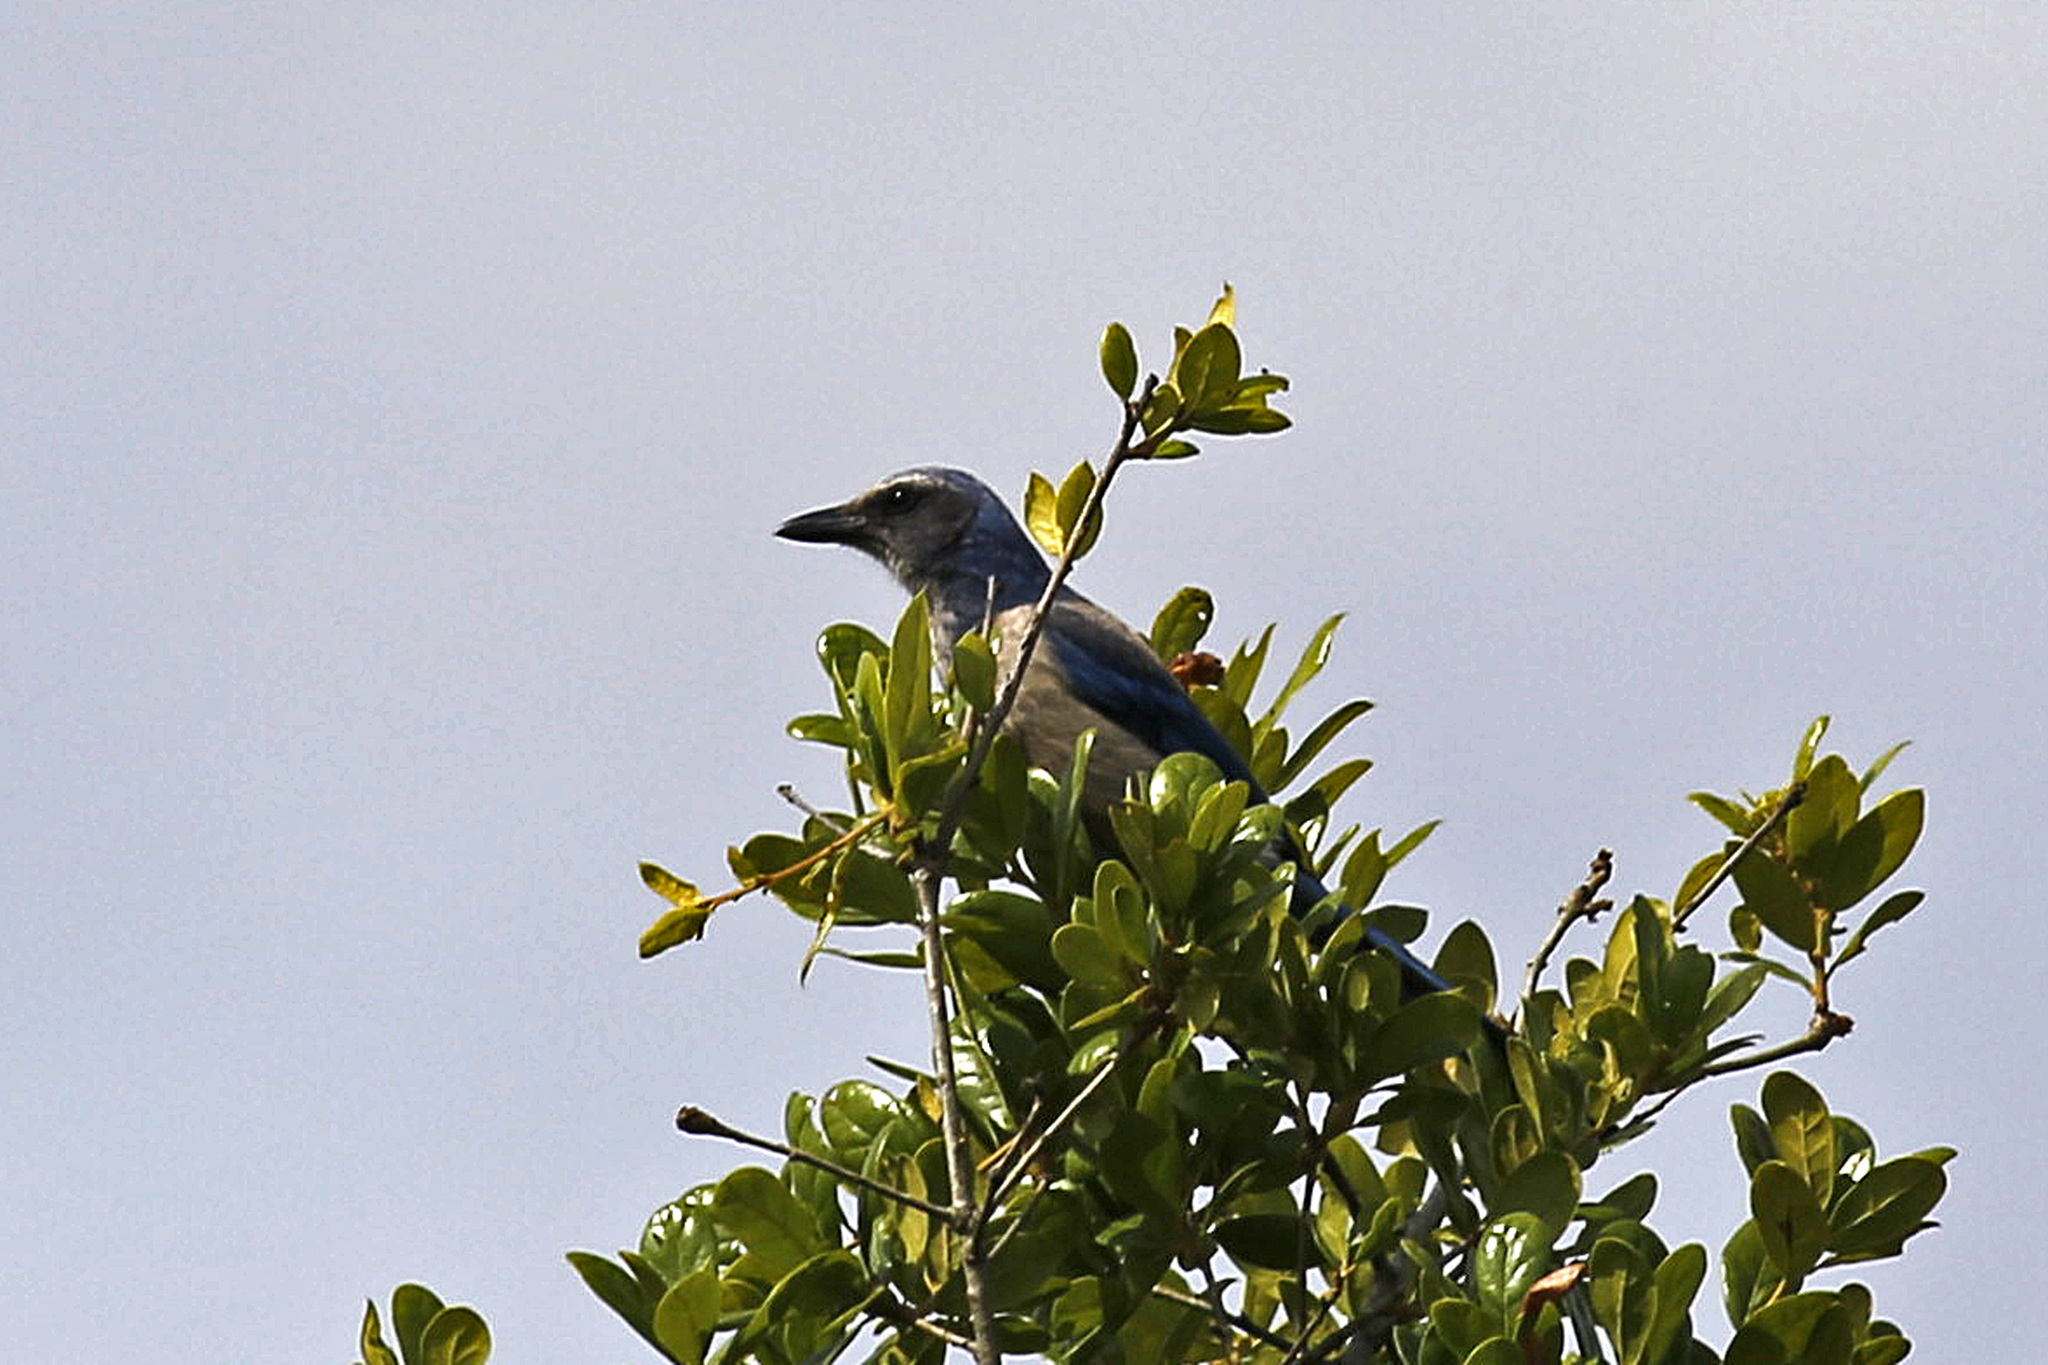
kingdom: Animalia
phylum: Chordata
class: Aves
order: Passeriformes
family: Corvidae
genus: Aphelocoma
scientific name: Aphelocoma coerulescens
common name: Florida scrub jay
